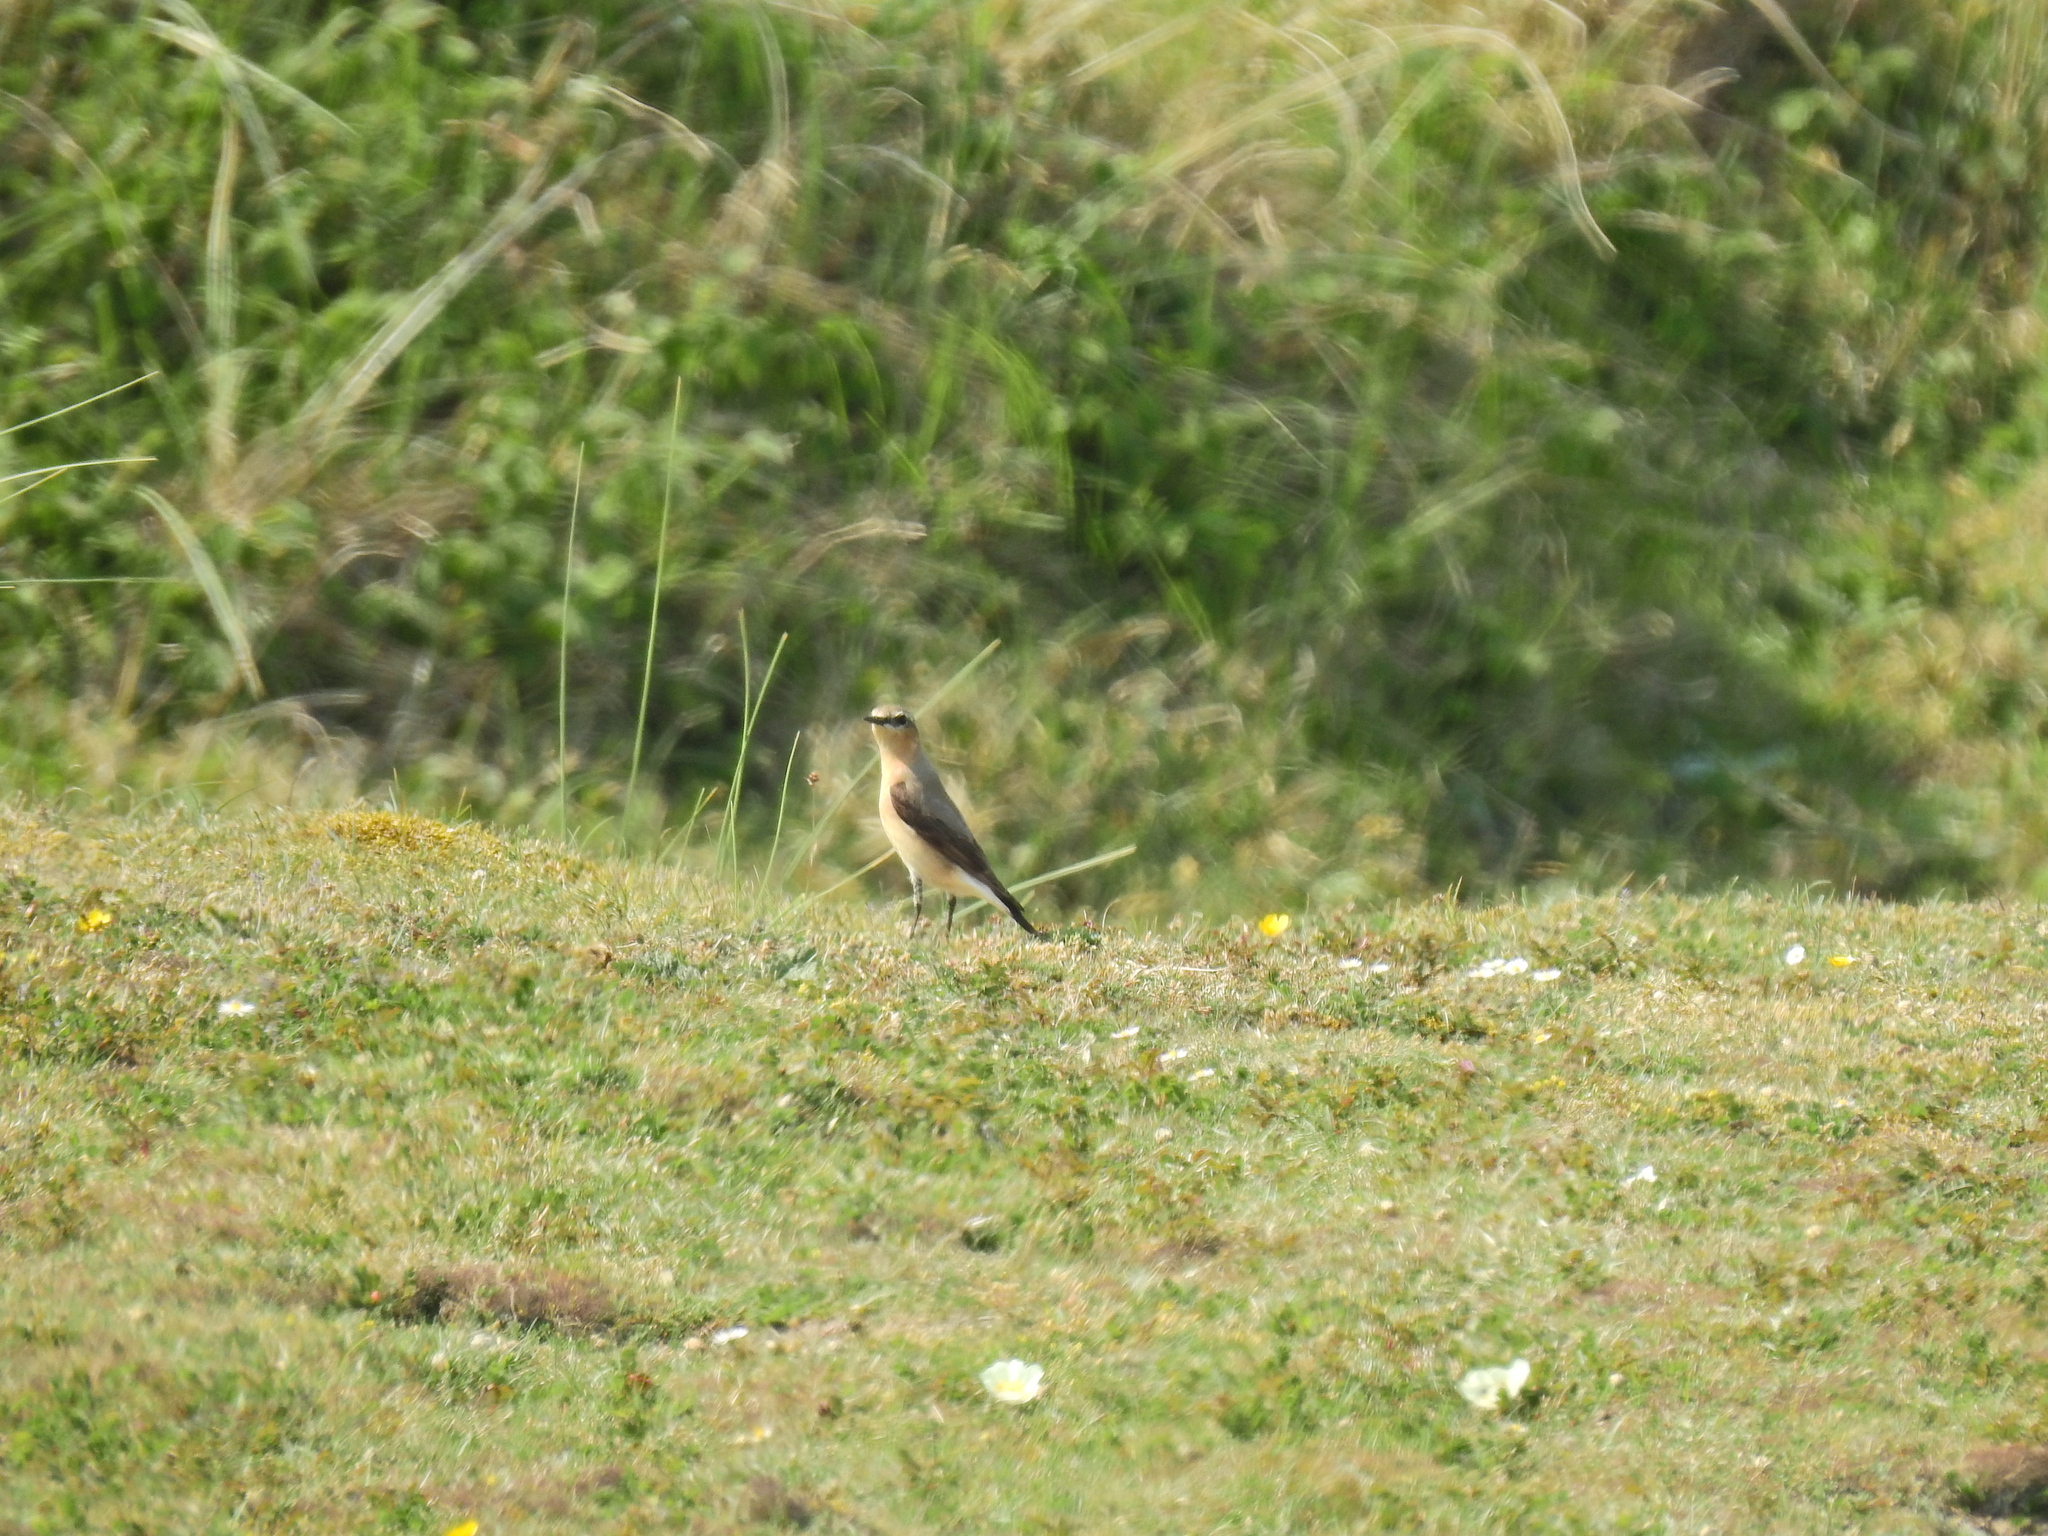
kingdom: Animalia
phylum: Chordata
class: Aves
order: Passeriformes
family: Muscicapidae
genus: Oenanthe
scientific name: Oenanthe oenanthe
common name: Northern wheatear
